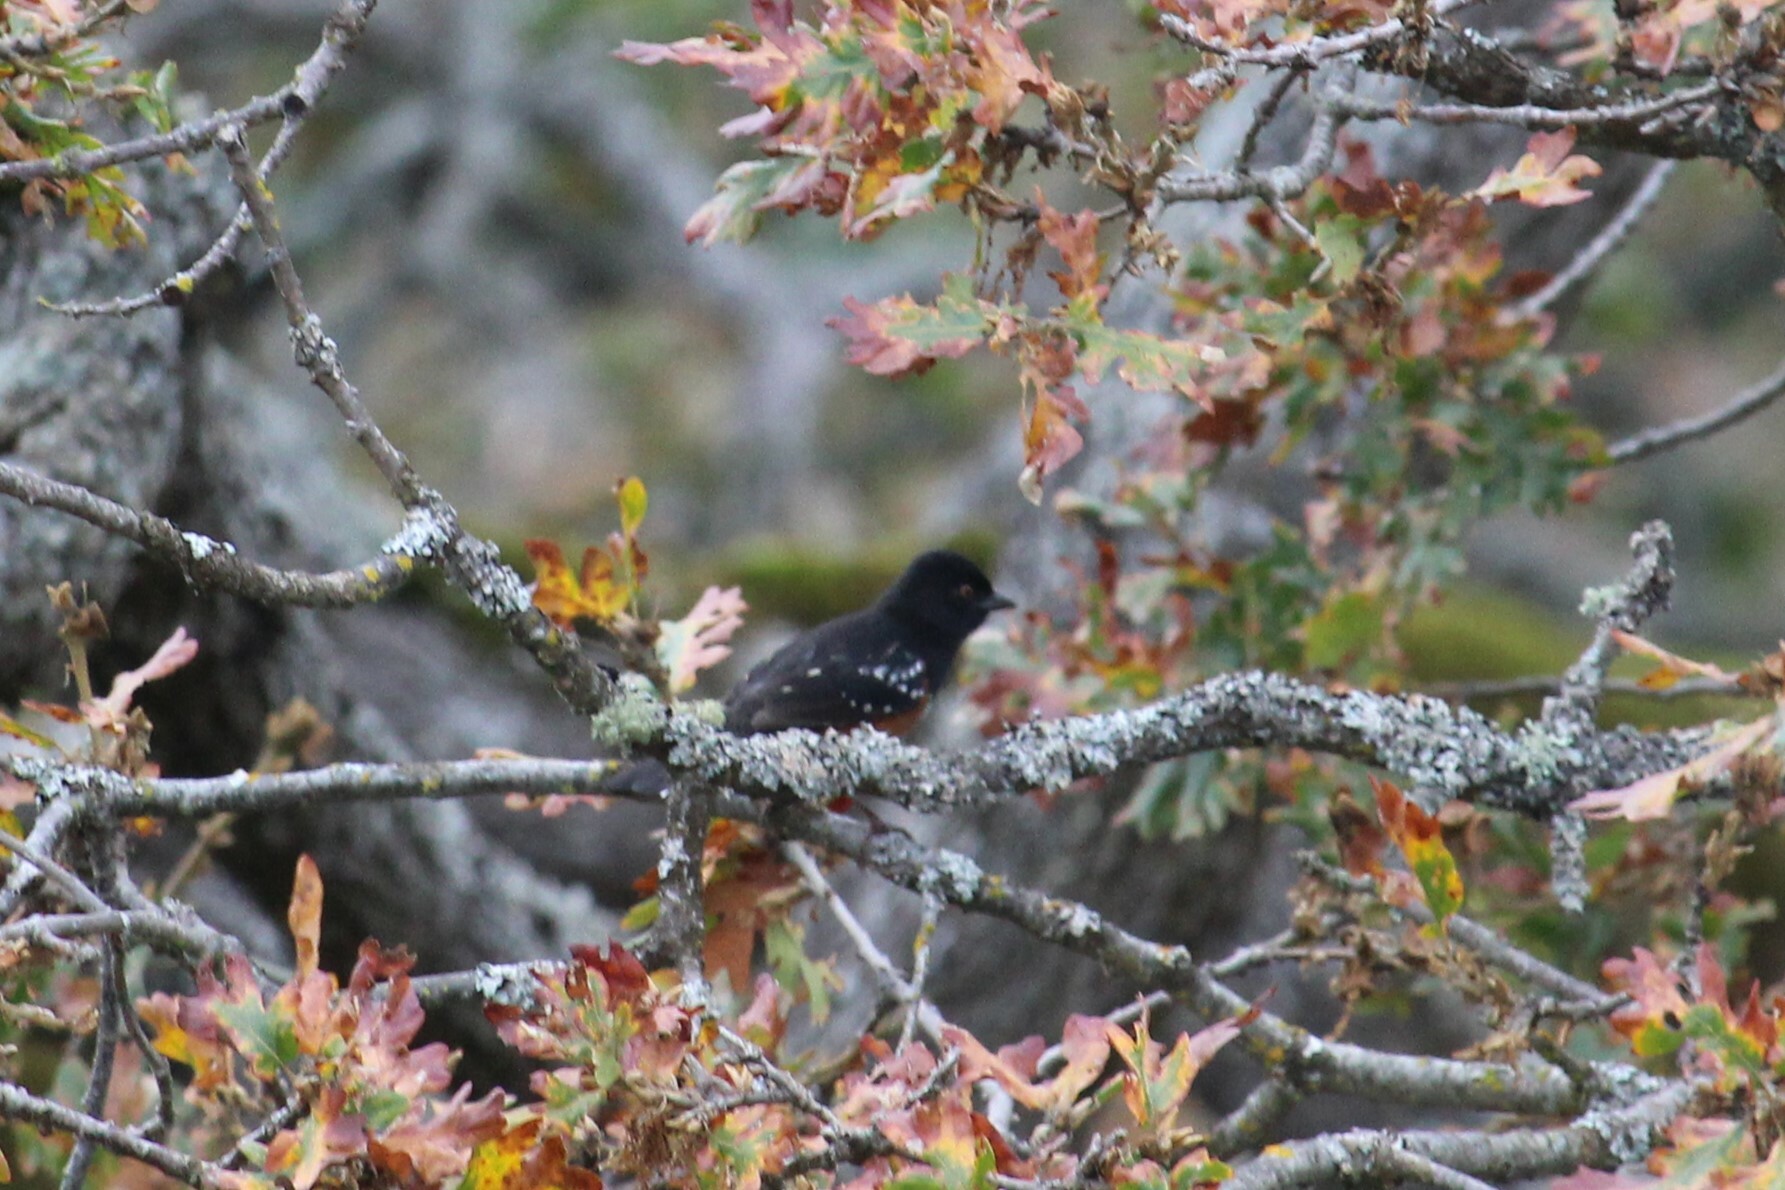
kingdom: Animalia
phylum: Chordata
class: Aves
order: Passeriformes
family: Passerellidae
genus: Pipilo
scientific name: Pipilo maculatus
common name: Spotted towhee
